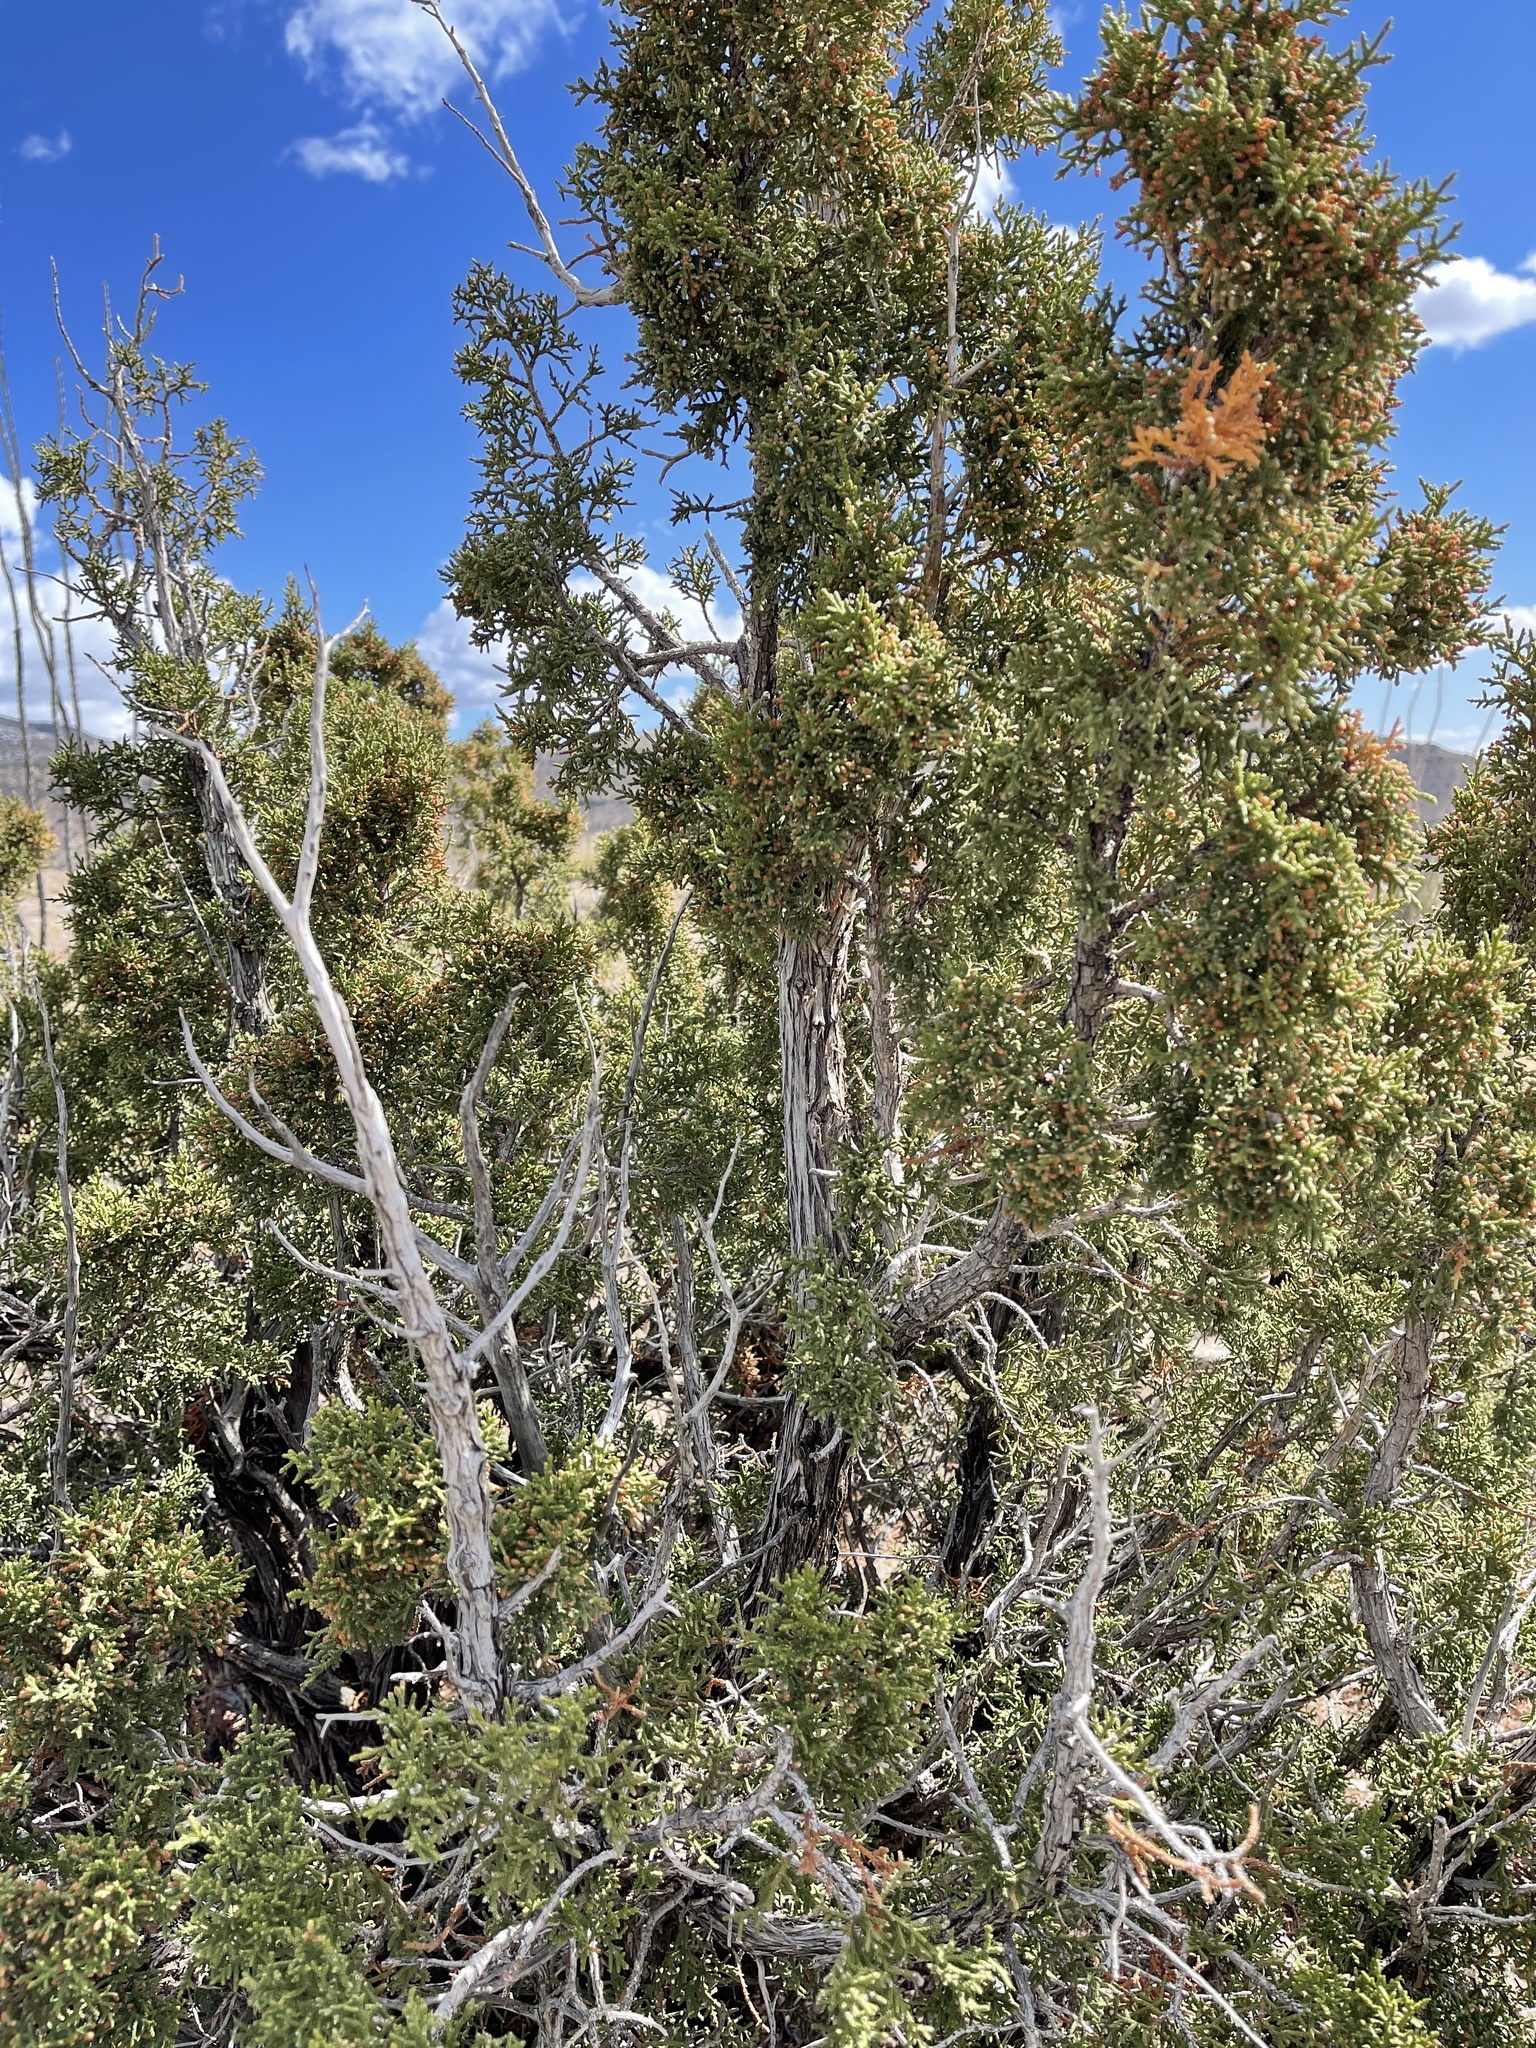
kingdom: Plantae
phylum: Tracheophyta
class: Pinopsida
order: Pinales
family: Cupressaceae
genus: Juniperus
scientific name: Juniperus monosperma
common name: One-seed juniper
